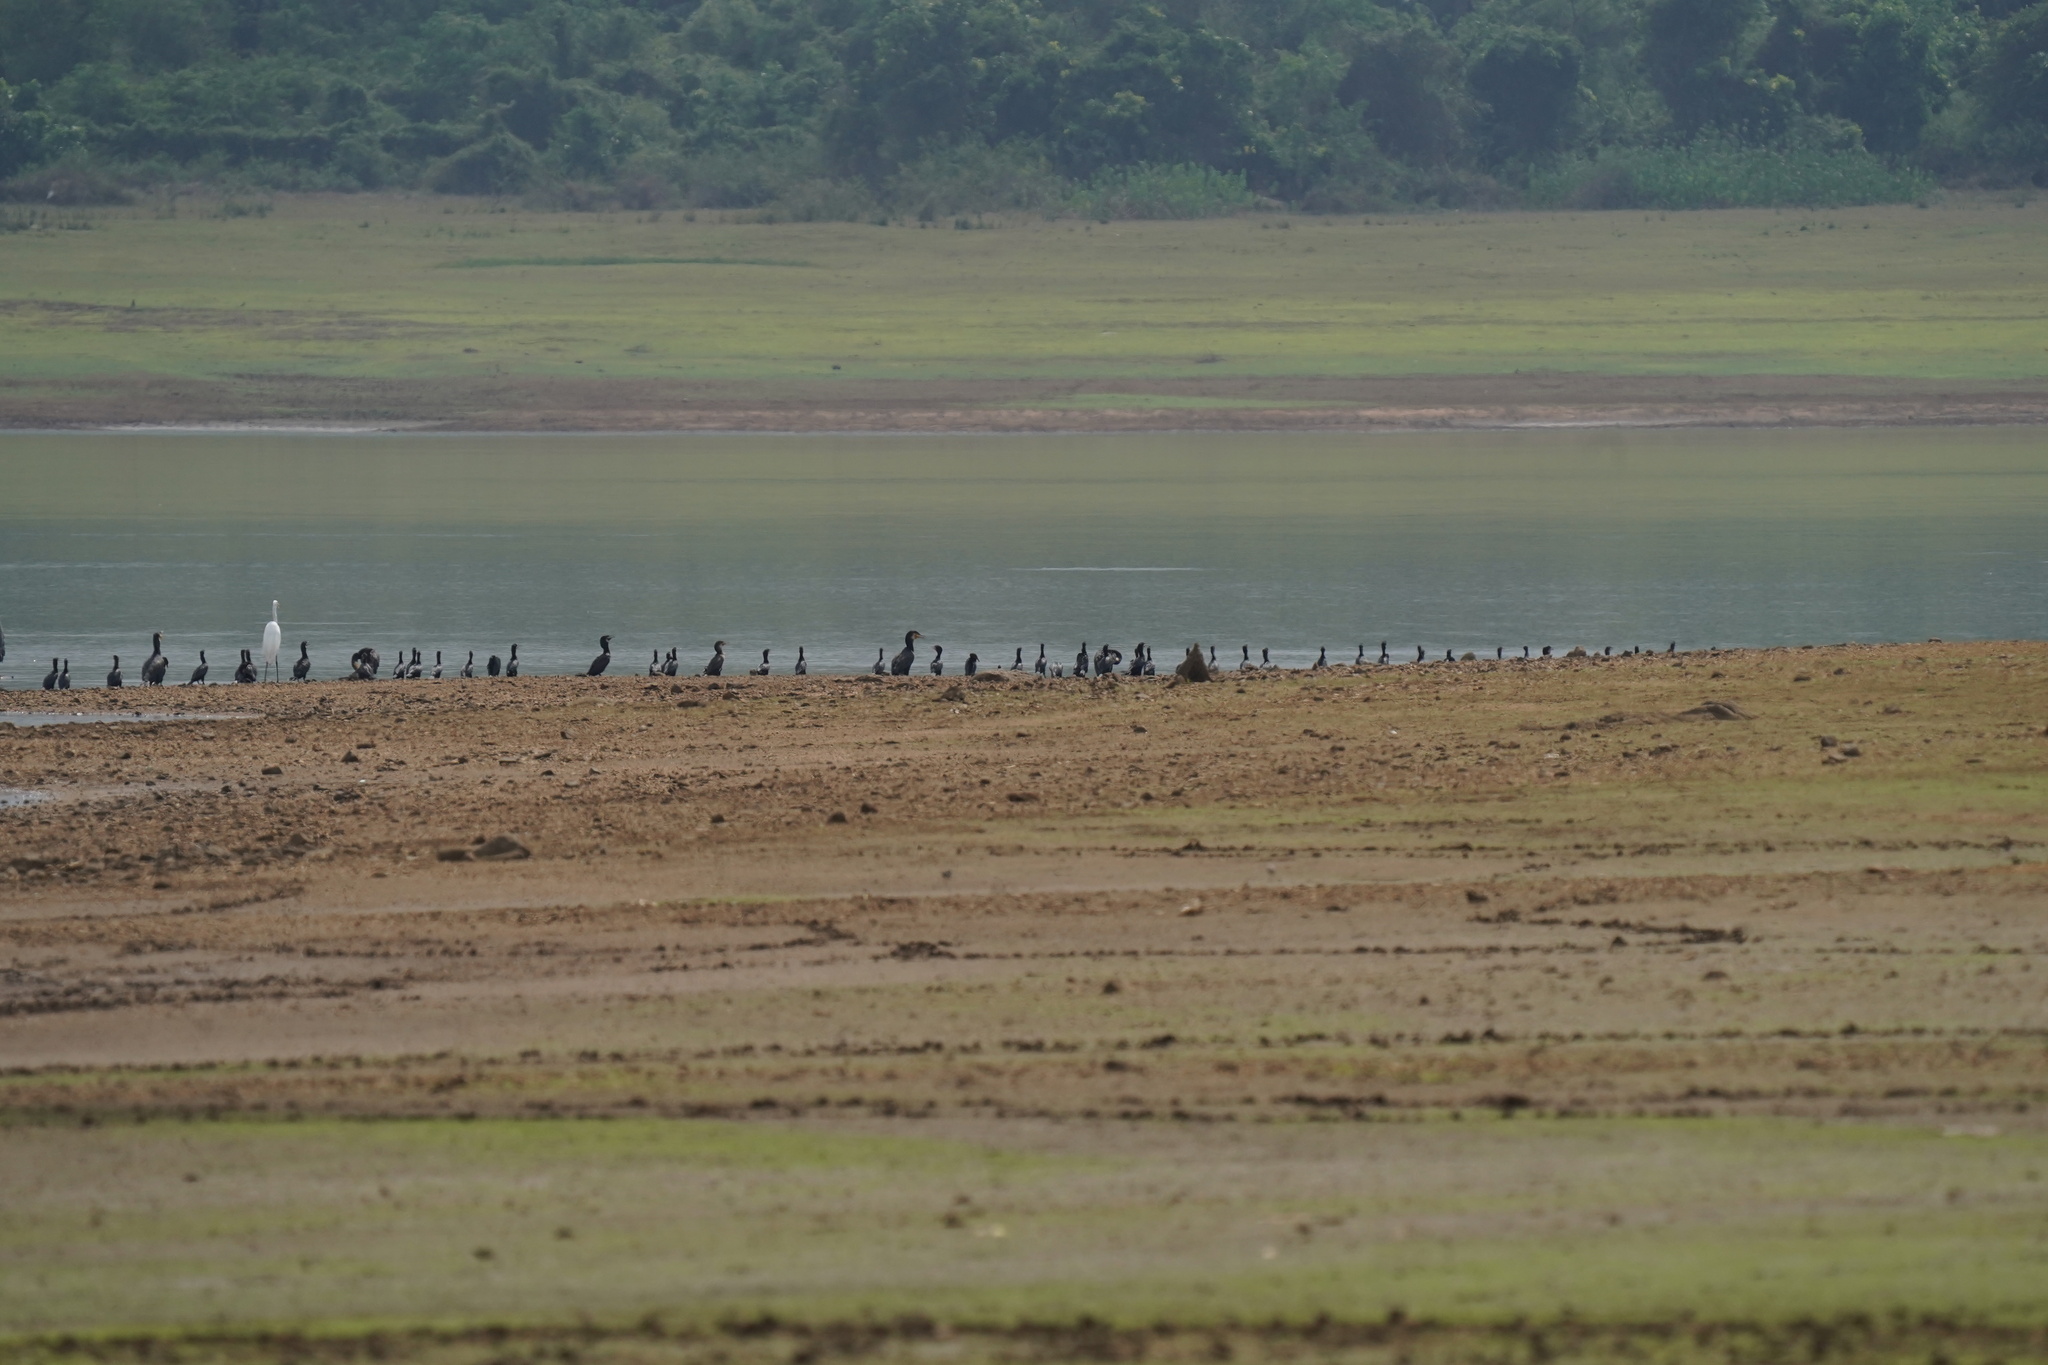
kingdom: Animalia
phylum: Chordata
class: Aves
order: Pelecaniformes
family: Ardeidae
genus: Ardeola
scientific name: Ardeola grayii
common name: Indian pond heron
